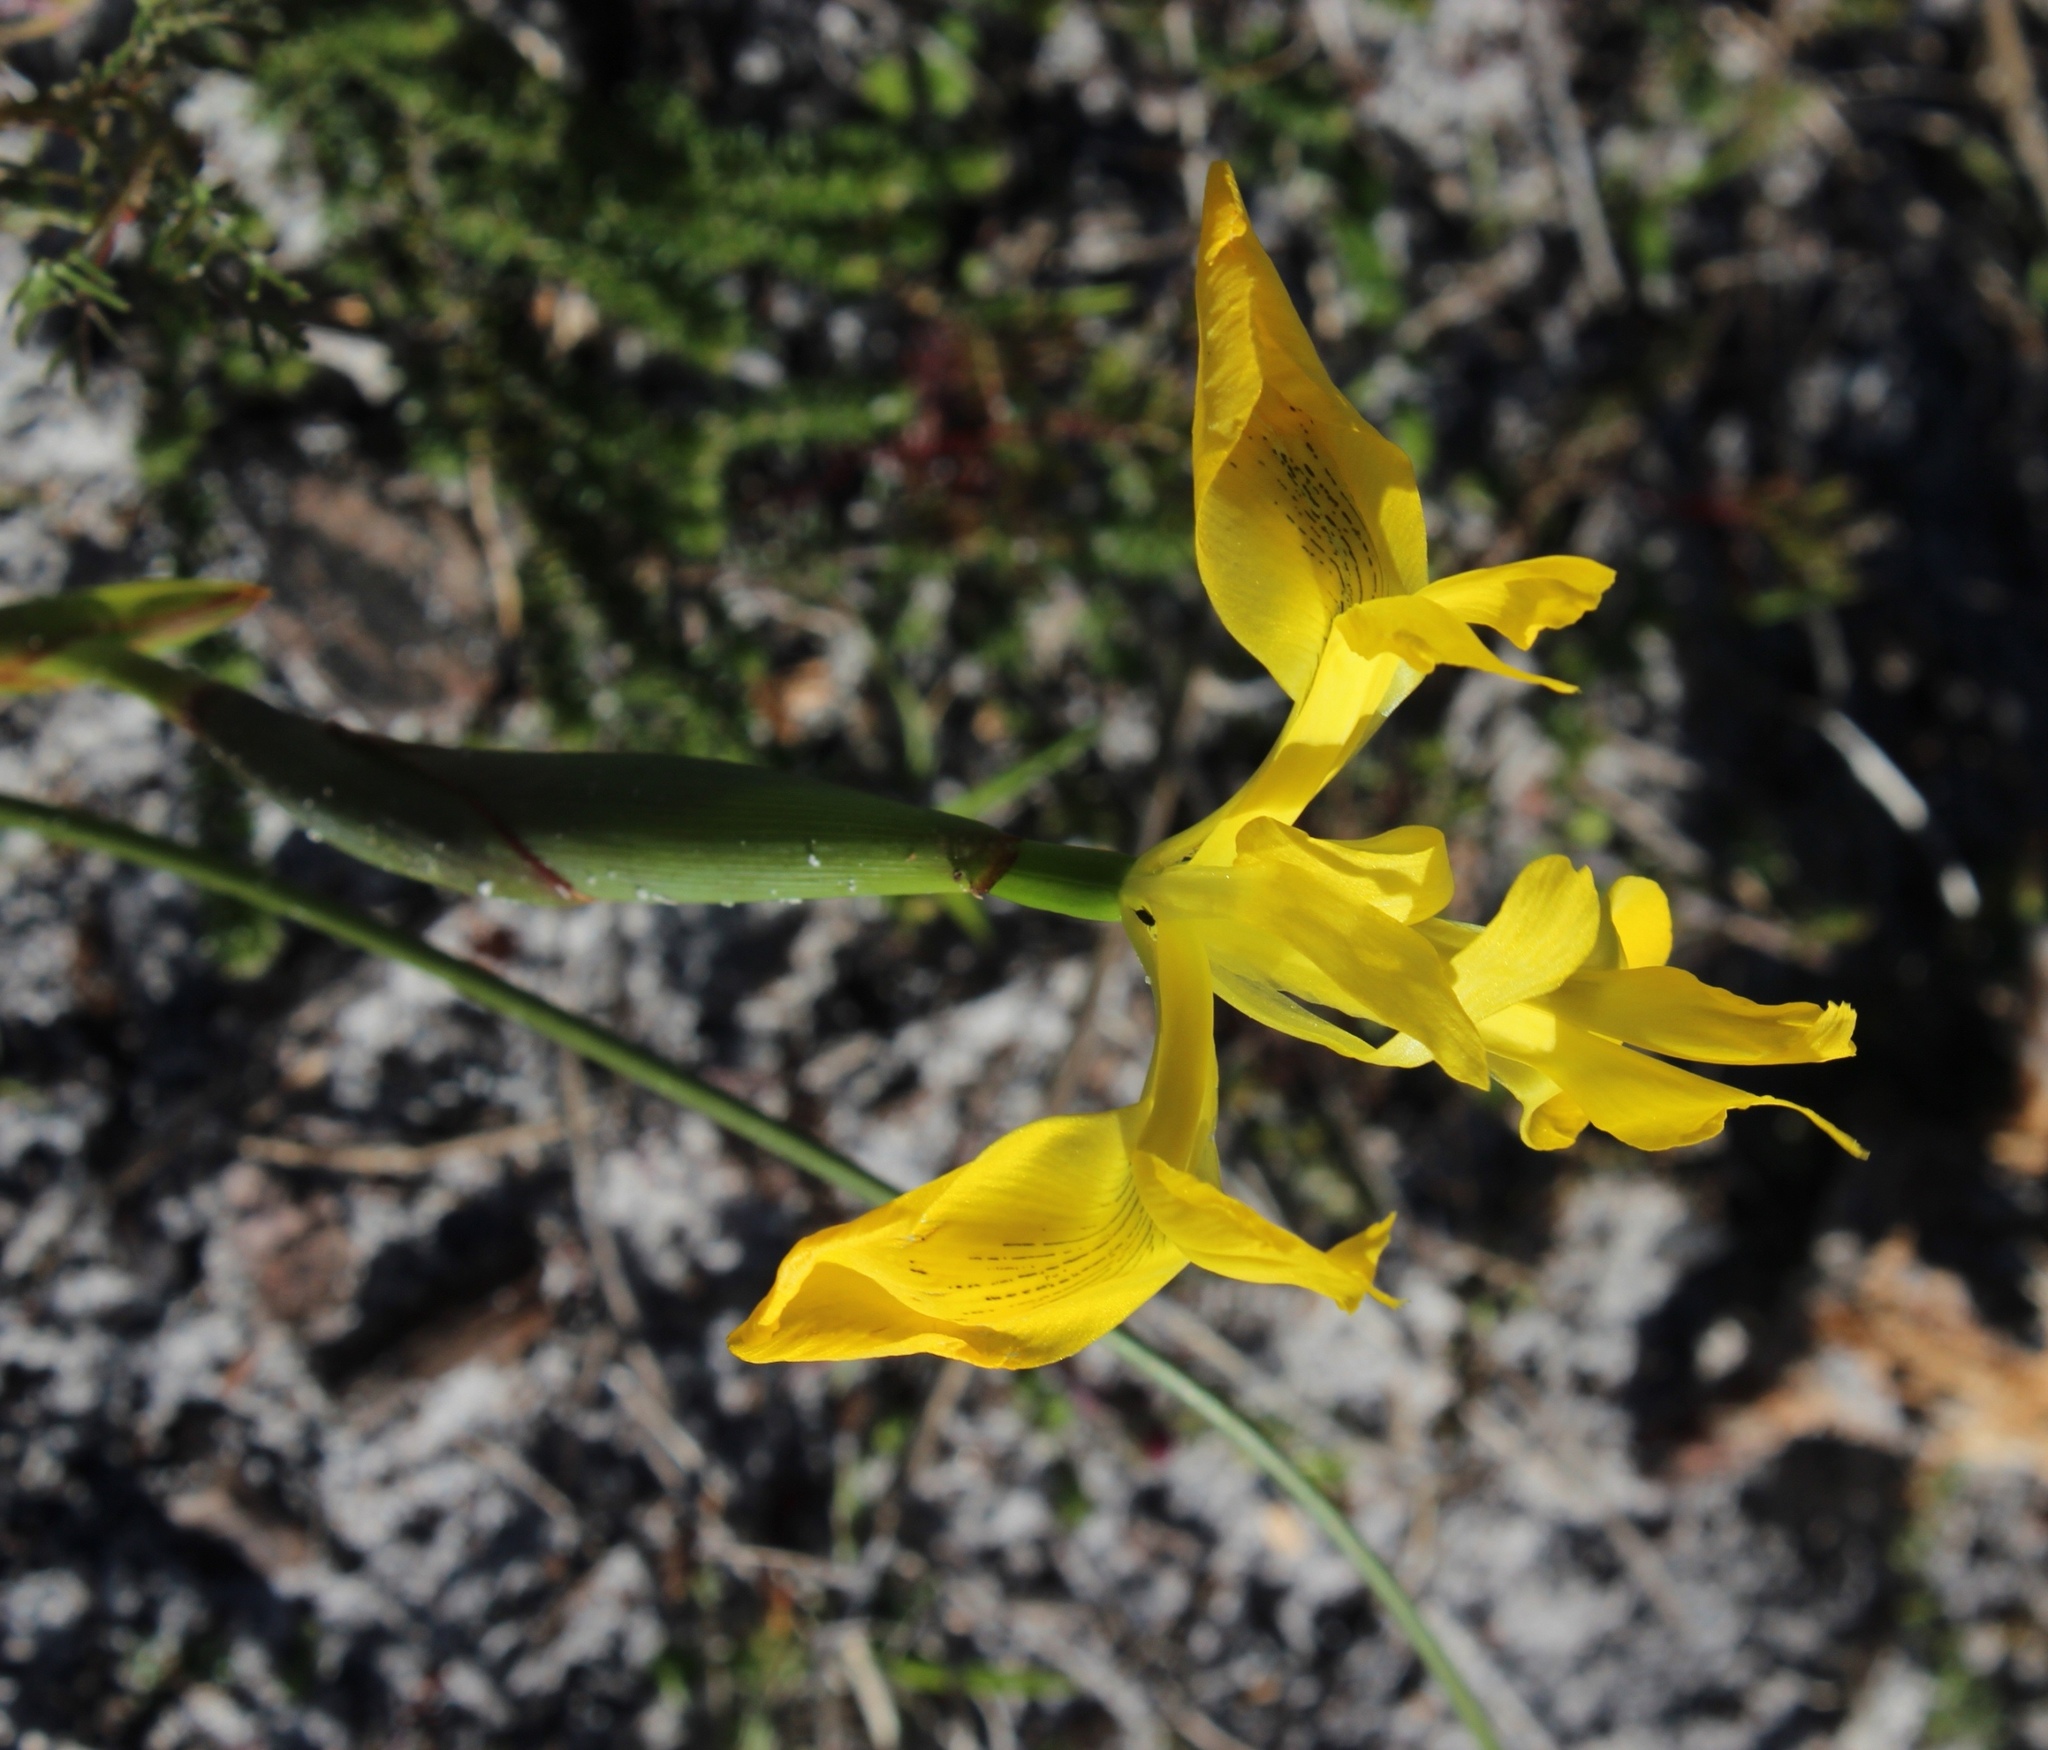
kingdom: Plantae
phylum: Tracheophyta
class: Liliopsida
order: Asparagales
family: Iridaceae
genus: Moraea
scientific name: Moraea neglecta
